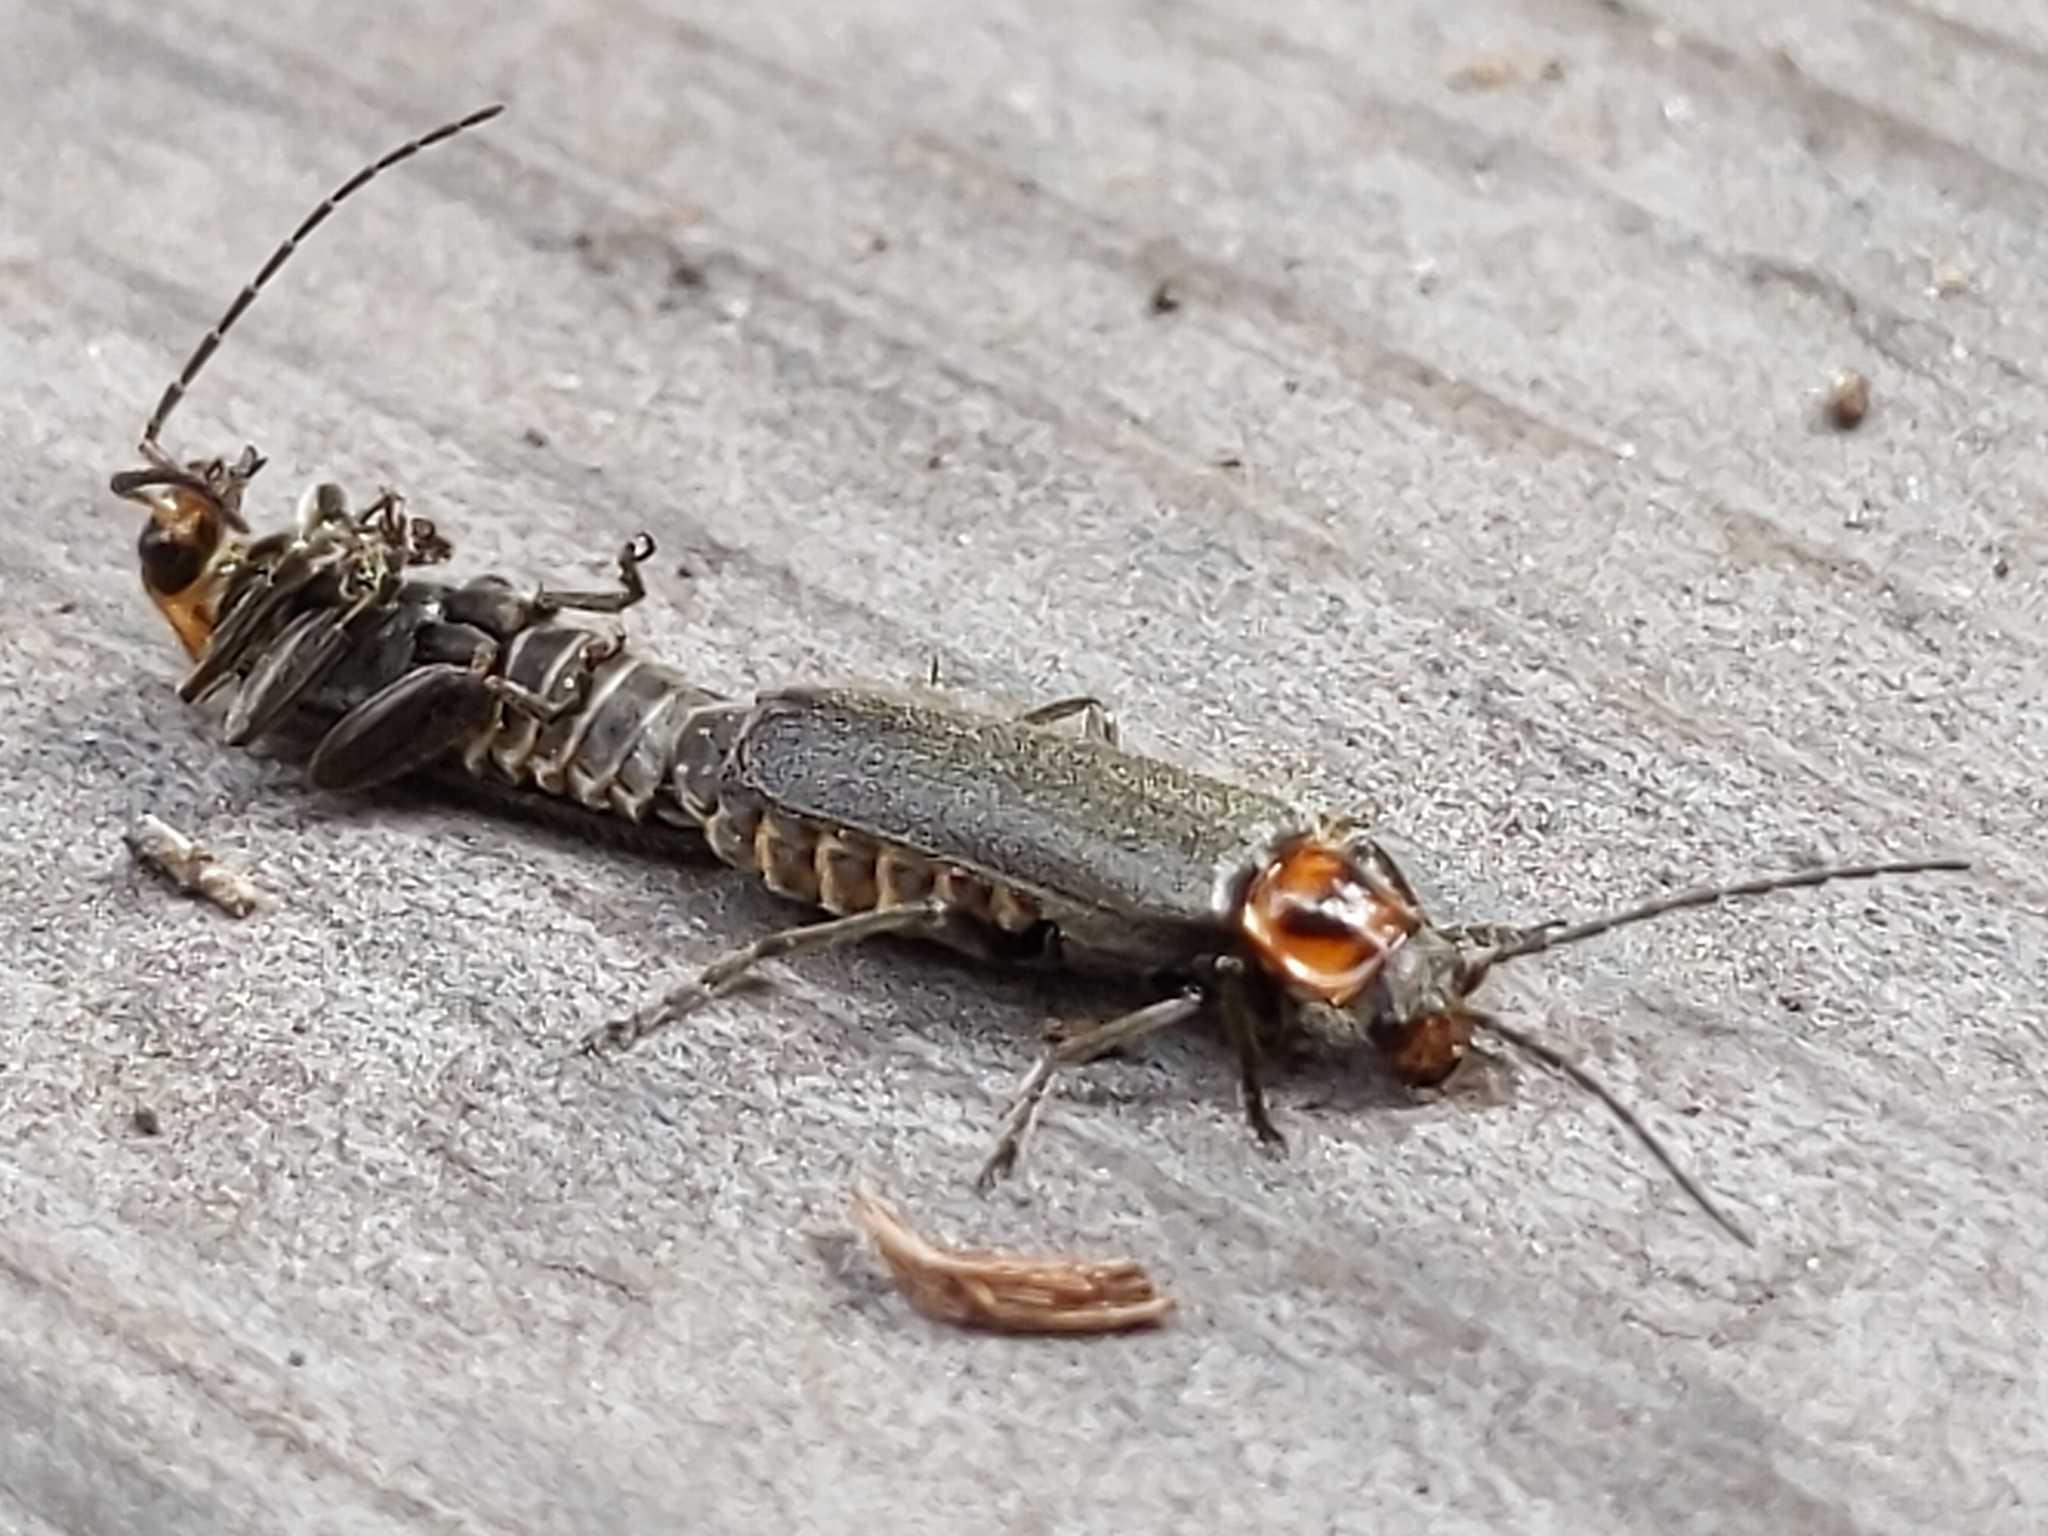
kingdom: Animalia
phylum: Arthropoda
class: Insecta
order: Coleoptera
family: Cantharidae
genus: Cyrtomoptera
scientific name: Cyrtomoptera divisa
